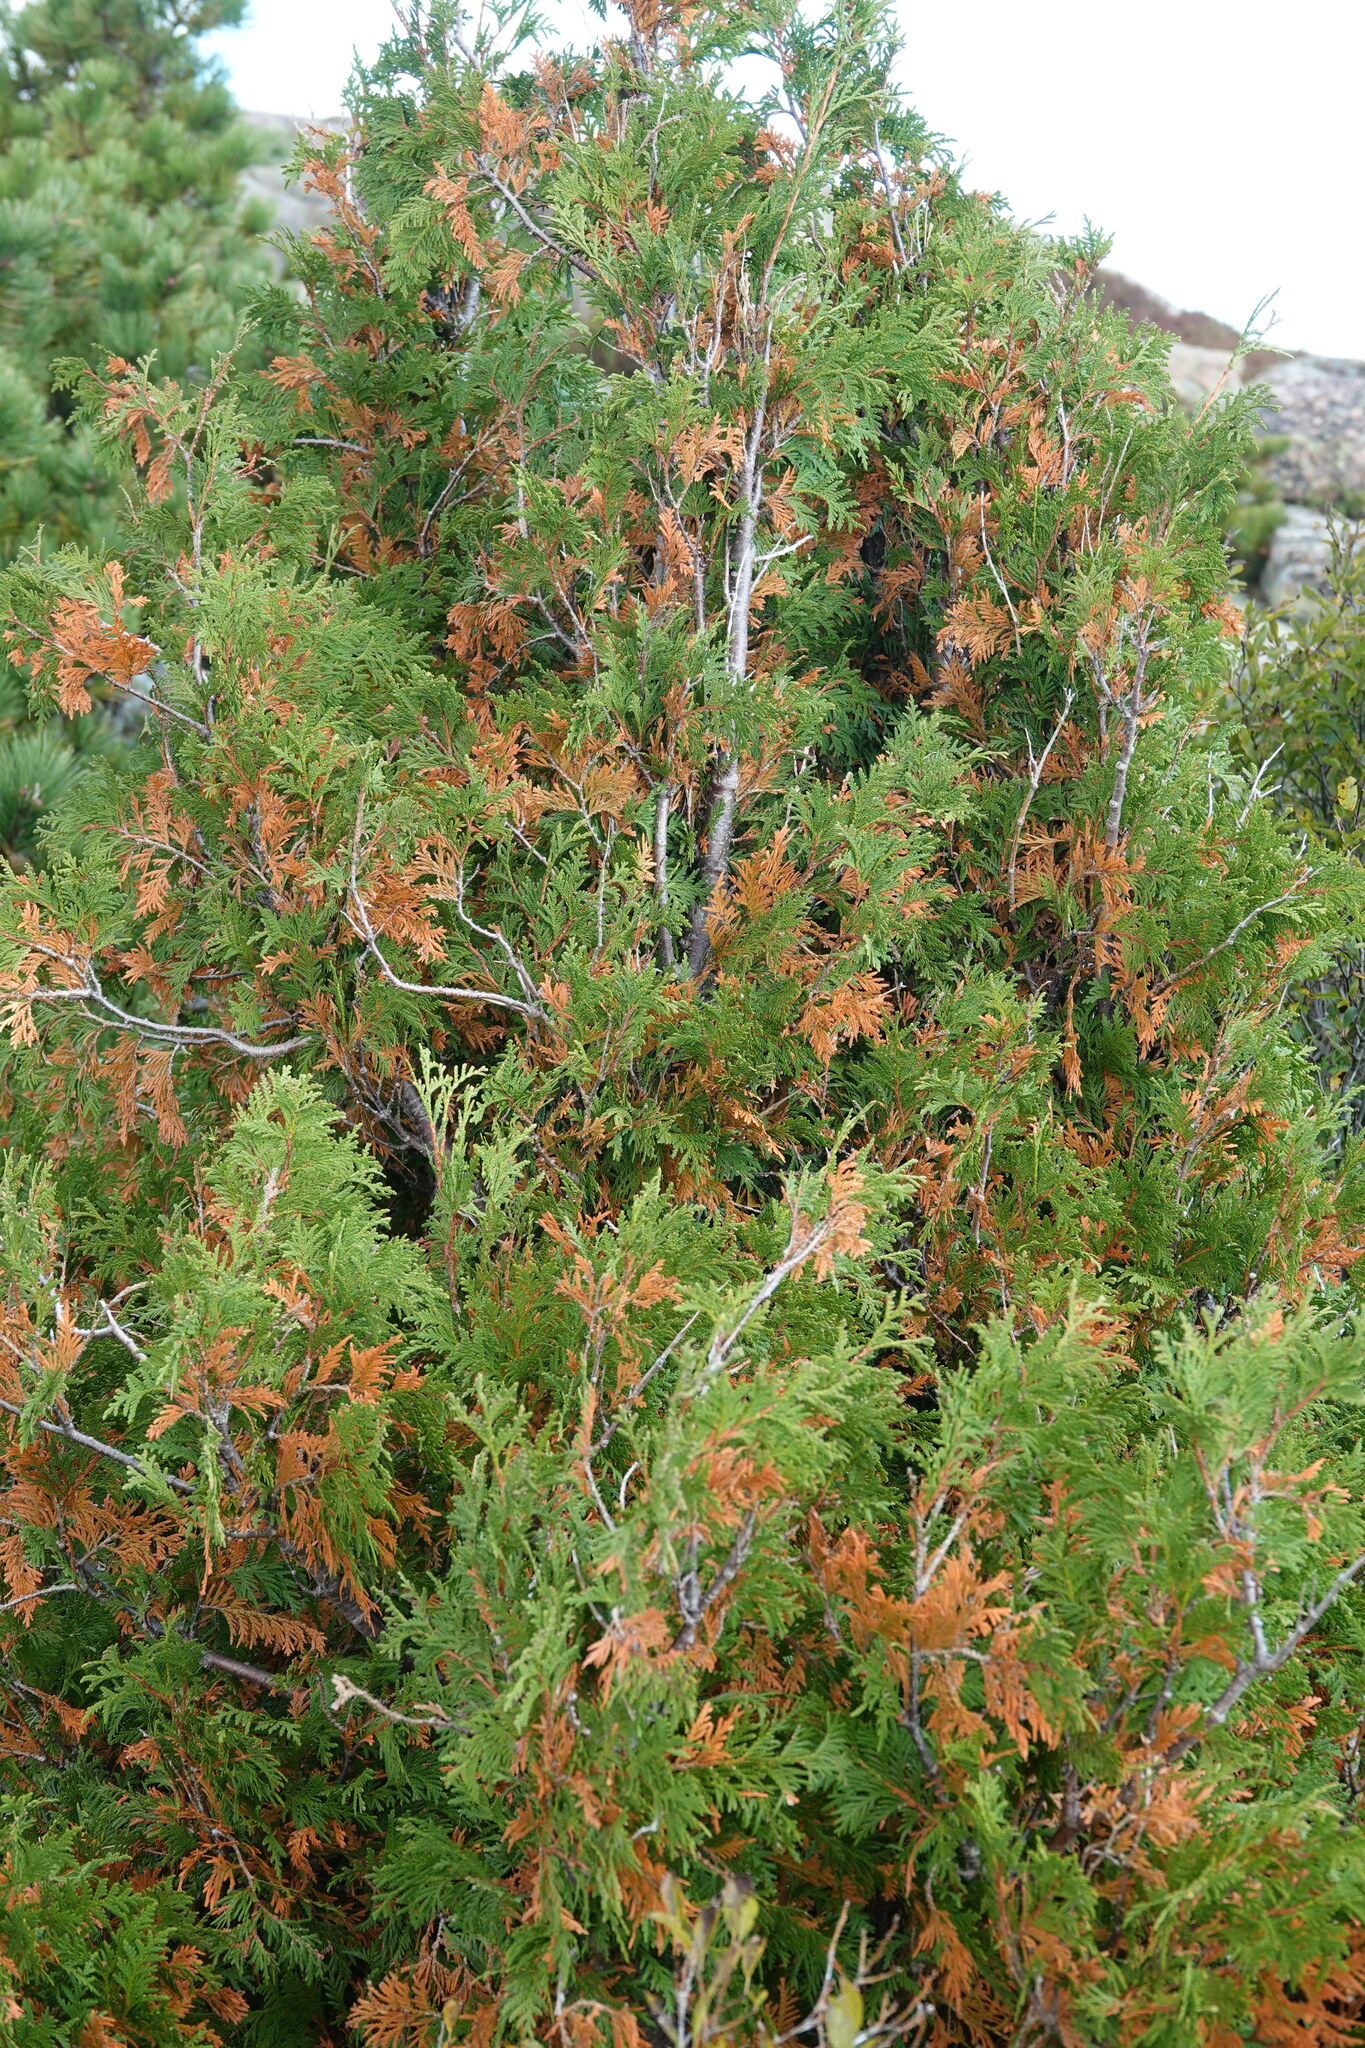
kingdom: Plantae
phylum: Tracheophyta
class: Pinopsida
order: Pinales
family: Cupressaceae
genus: Thuja
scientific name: Thuja occidentalis
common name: Northern white-cedar
